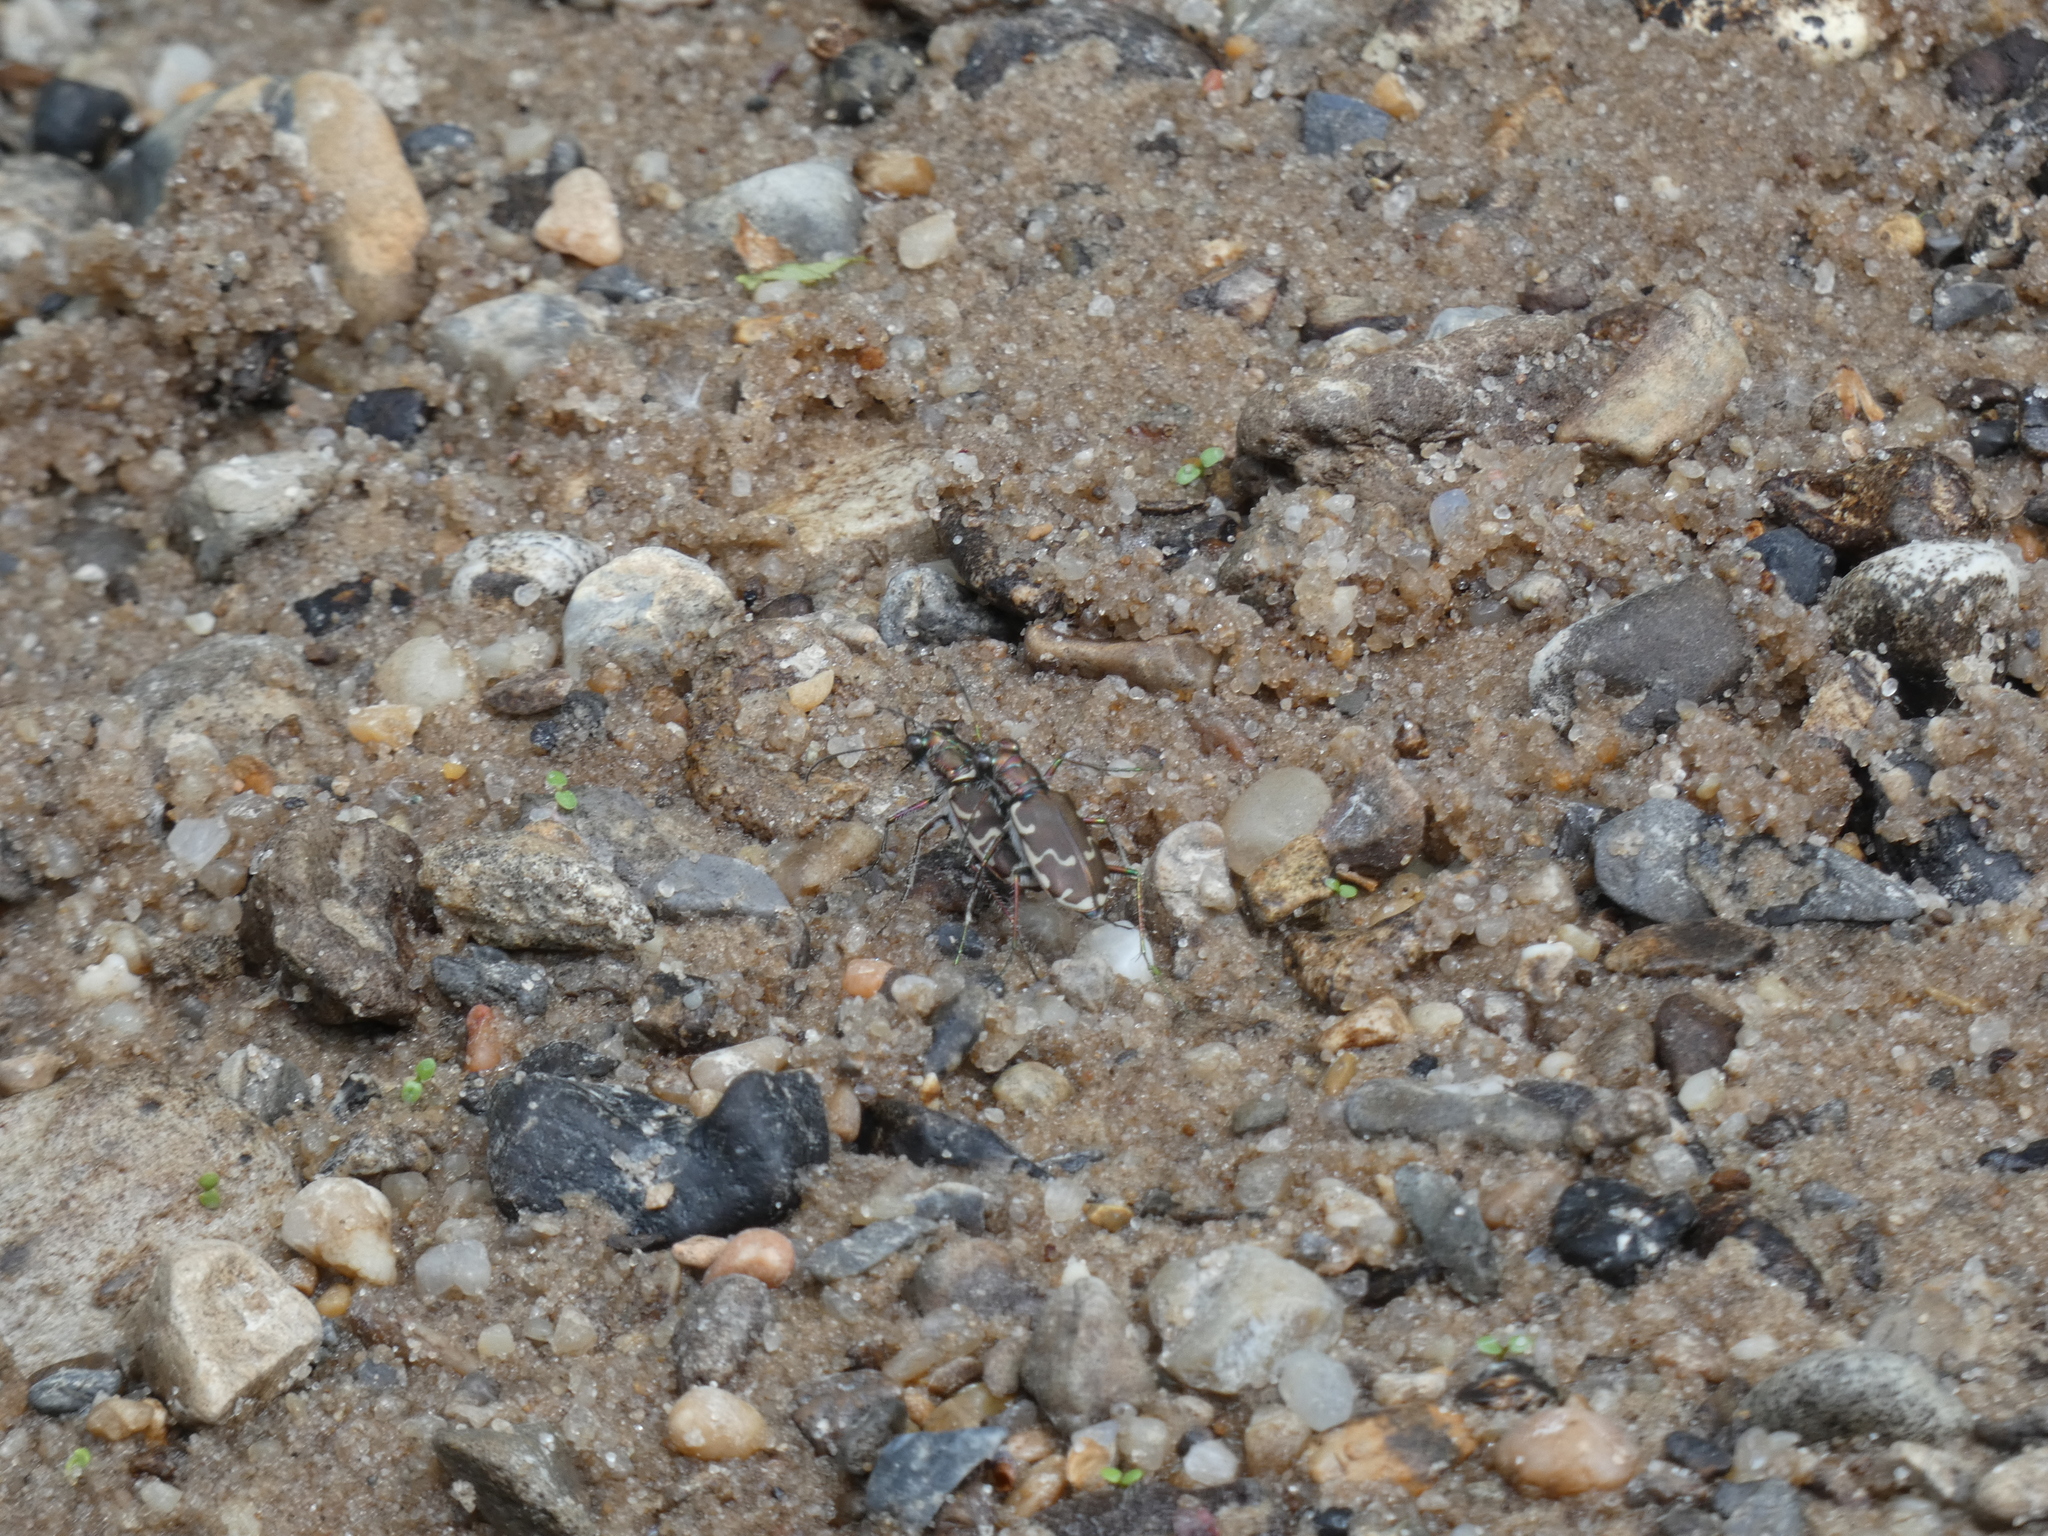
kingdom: Animalia
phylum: Arthropoda
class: Insecta
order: Coleoptera
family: Carabidae
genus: Cicindela
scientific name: Cicindela repanda
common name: Bronzed tiger beetle
